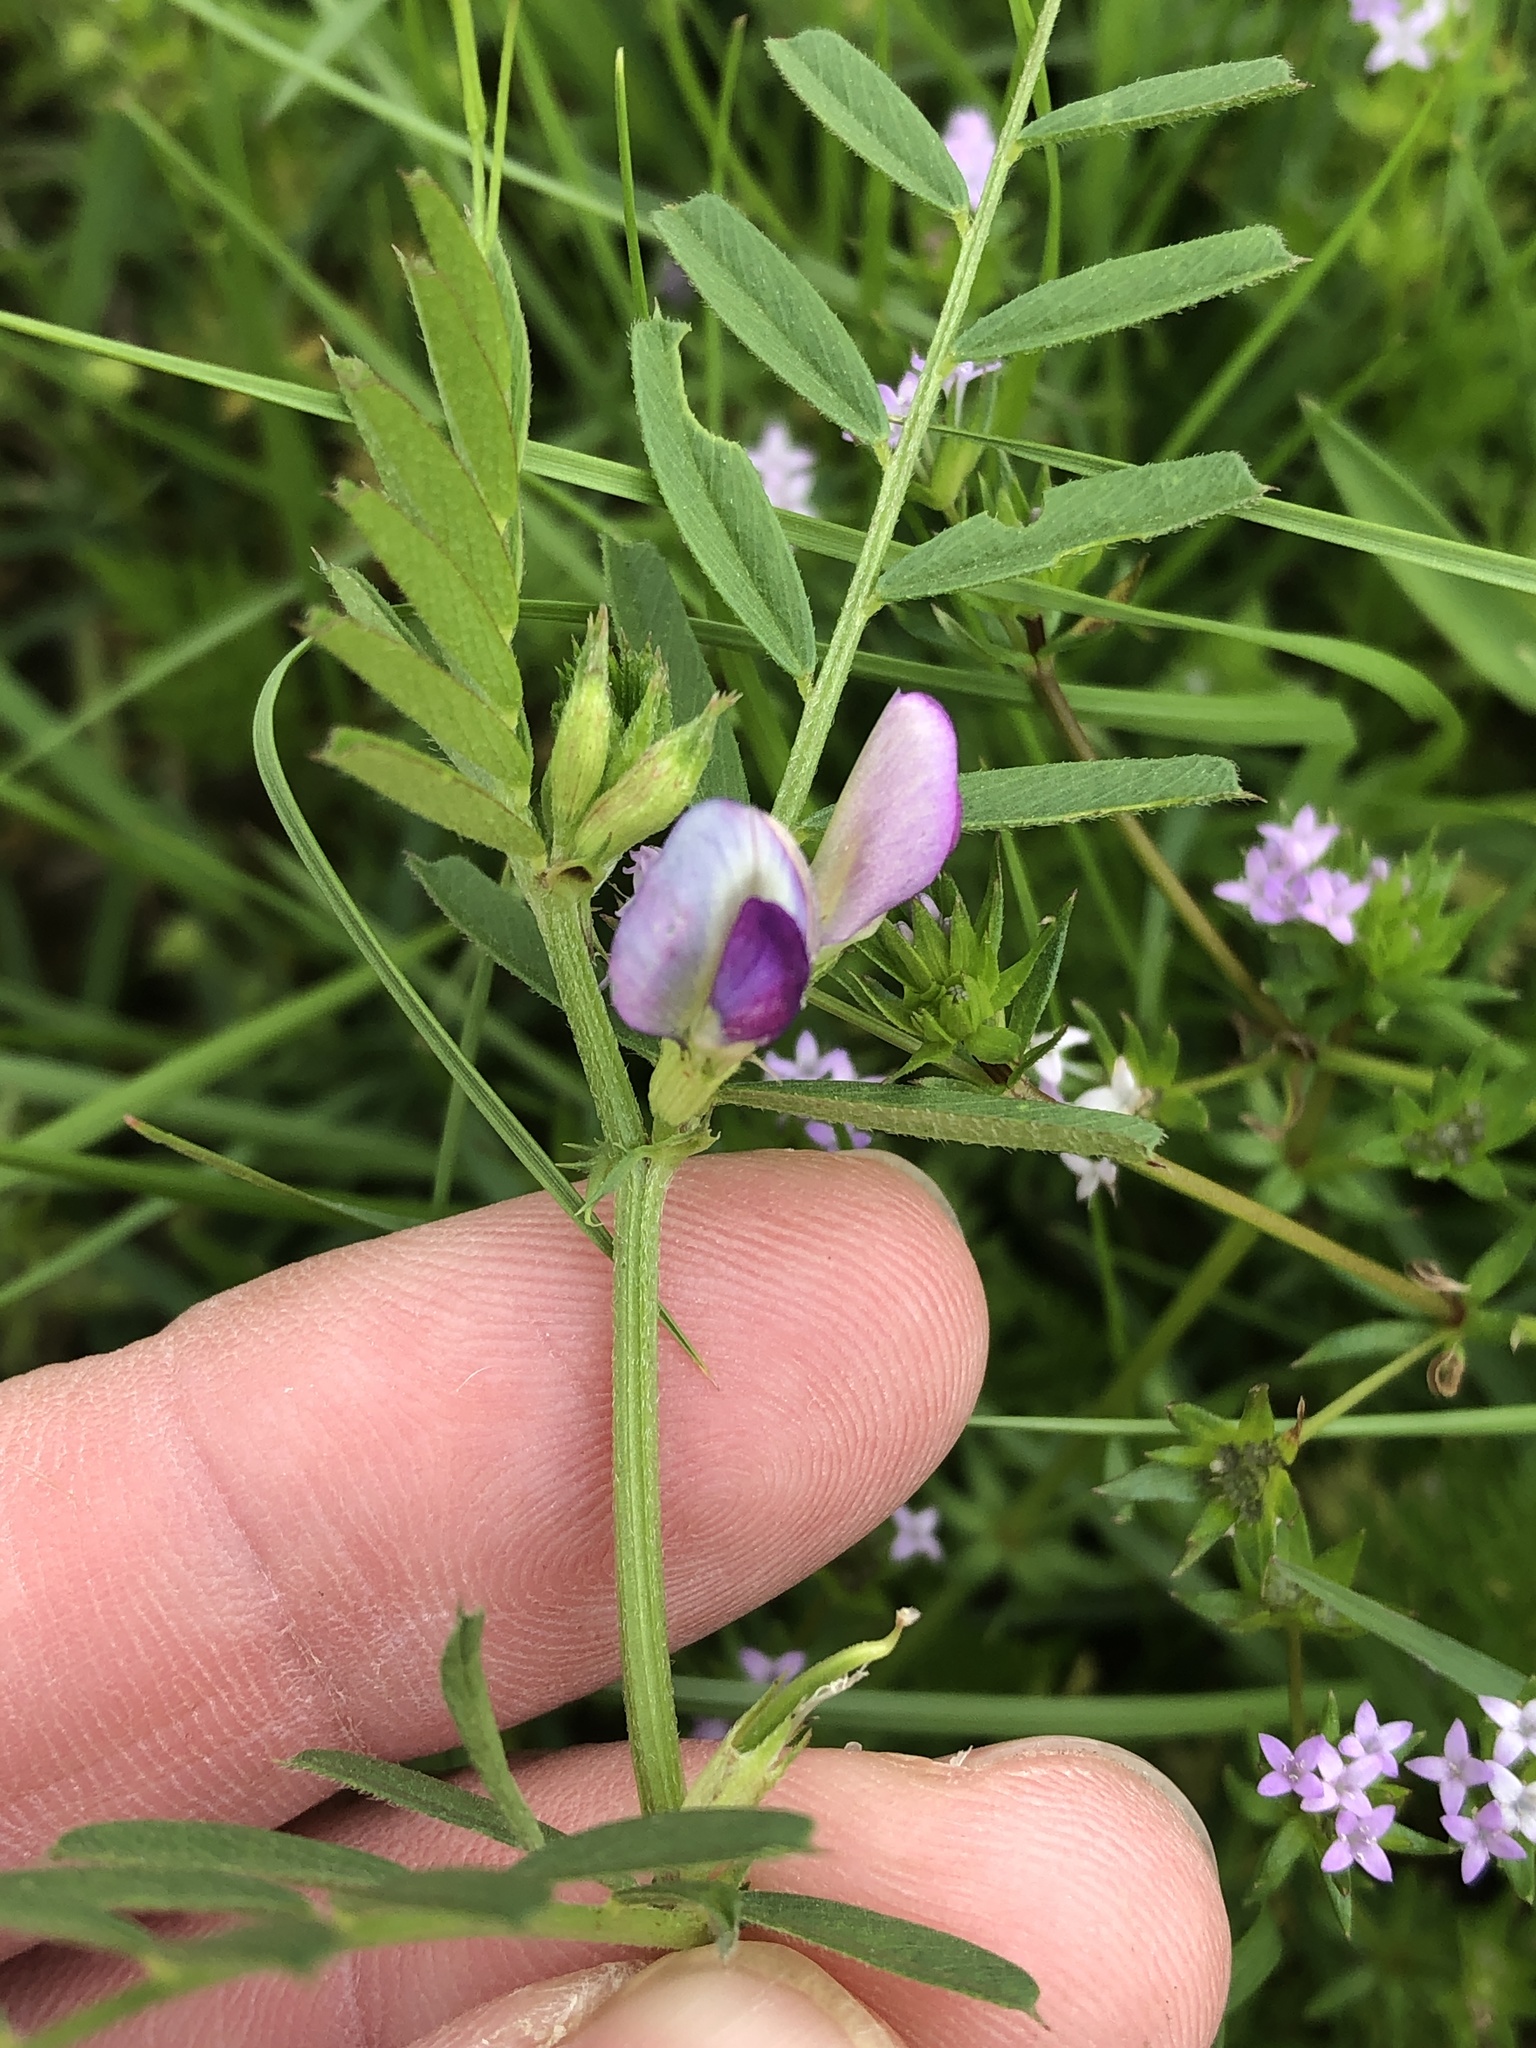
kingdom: Plantae
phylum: Tracheophyta
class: Magnoliopsida
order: Fabales
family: Fabaceae
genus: Vicia
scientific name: Vicia sativa
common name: Garden vetch
